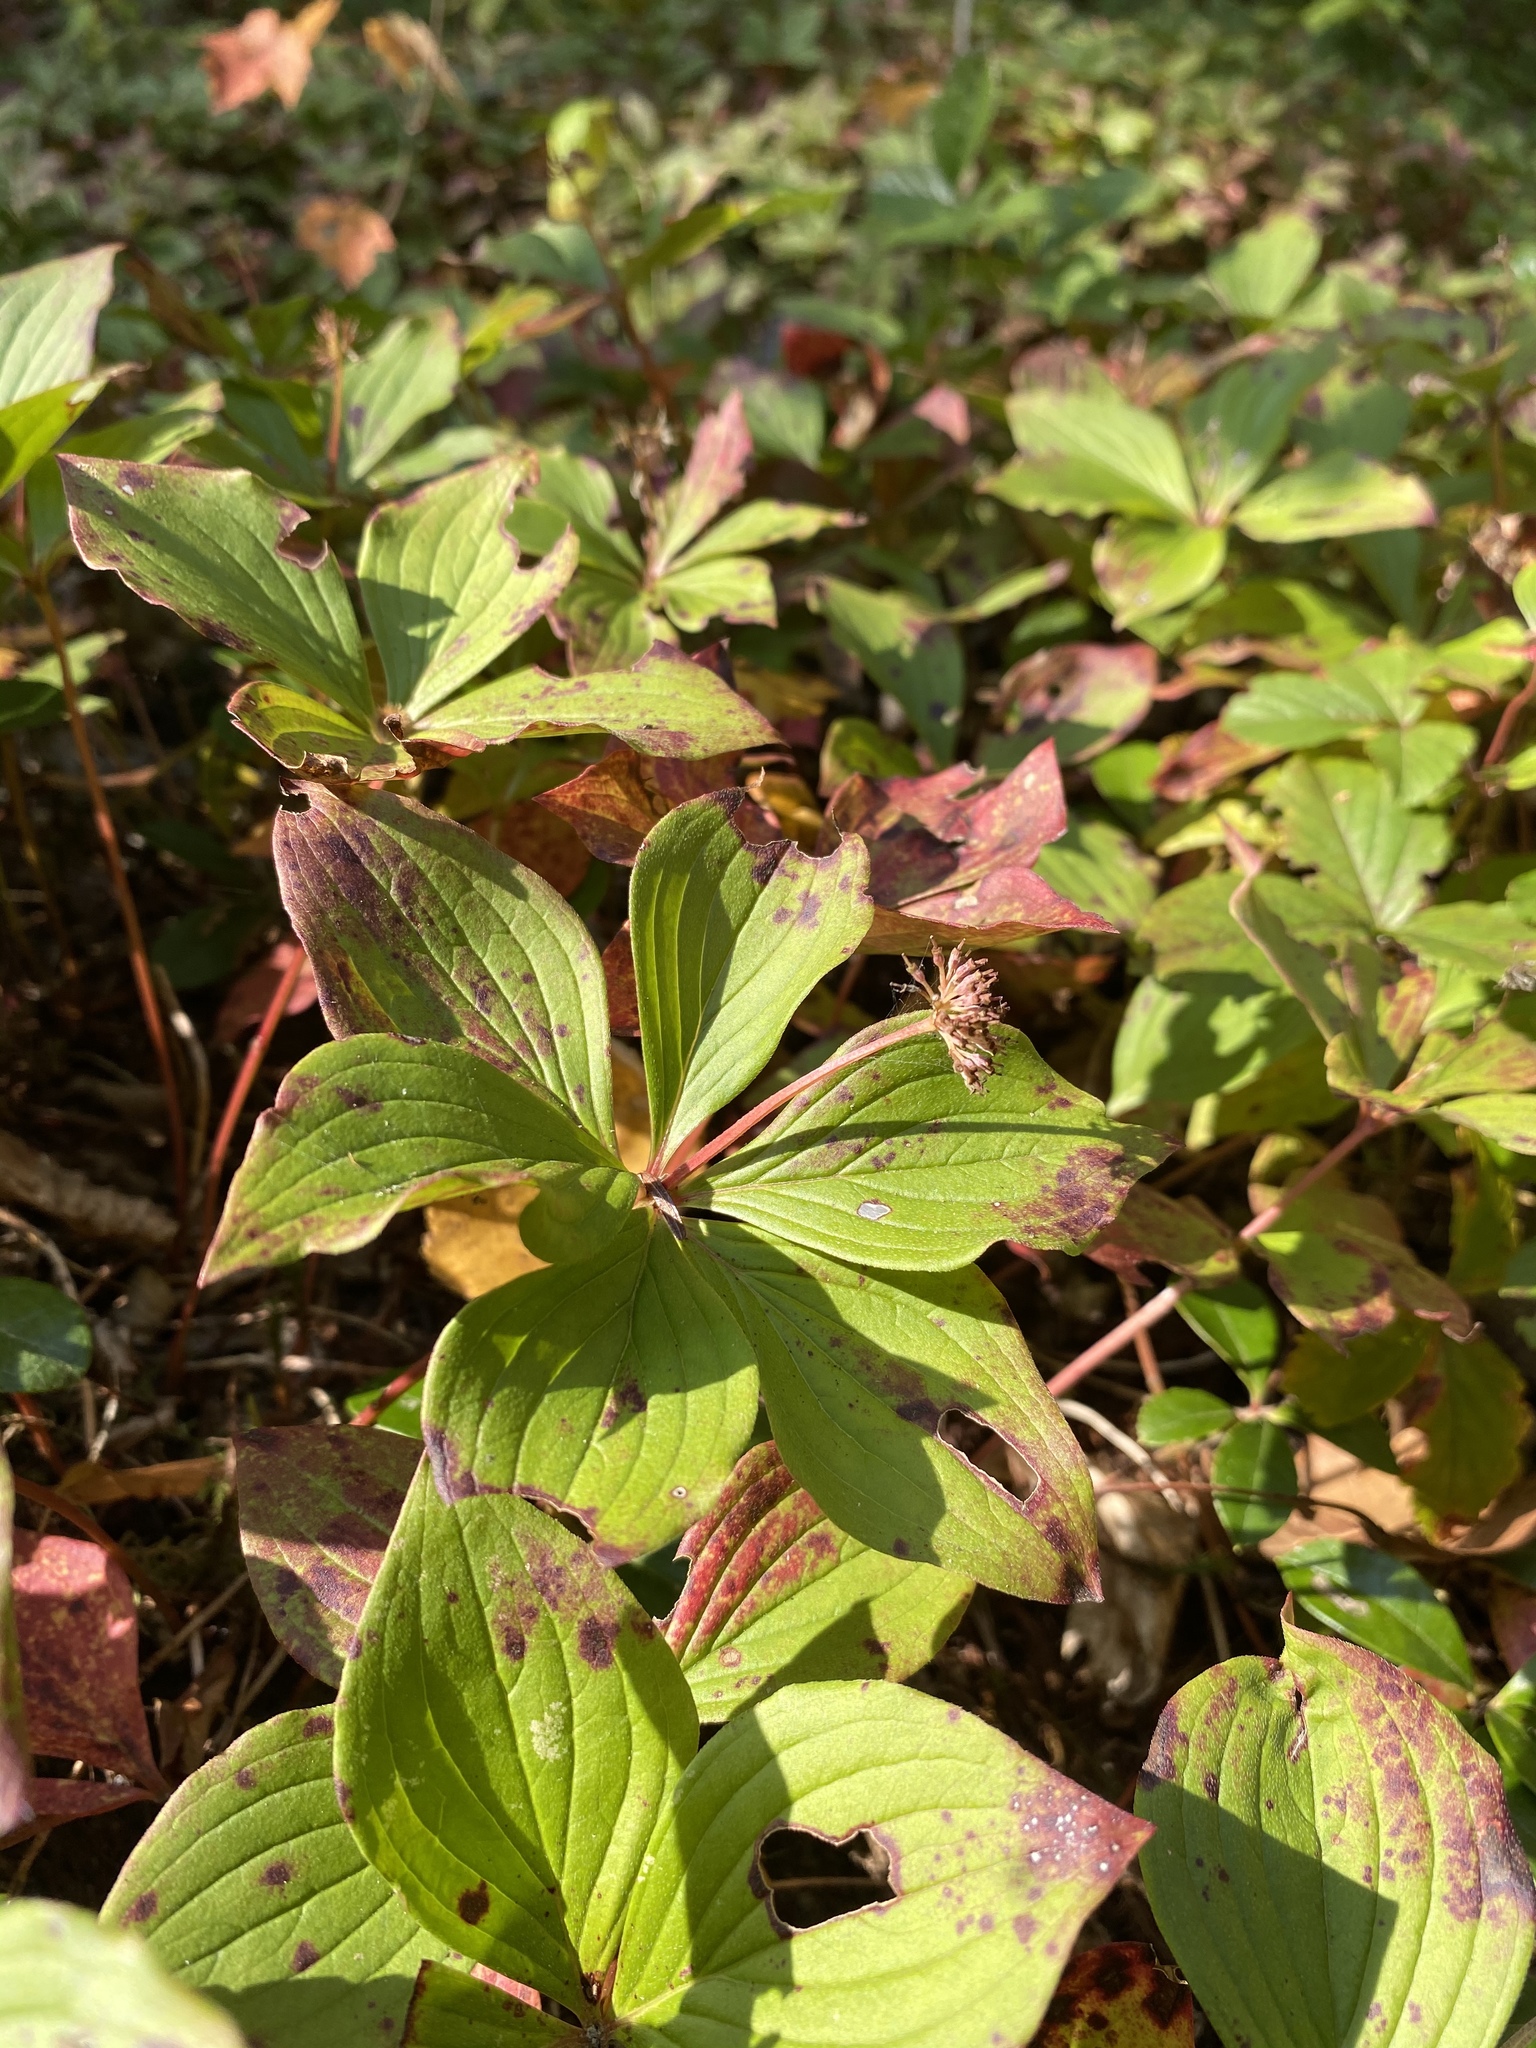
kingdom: Plantae
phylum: Tracheophyta
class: Magnoliopsida
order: Cornales
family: Cornaceae
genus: Cornus
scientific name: Cornus canadensis
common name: Creeping dogwood
